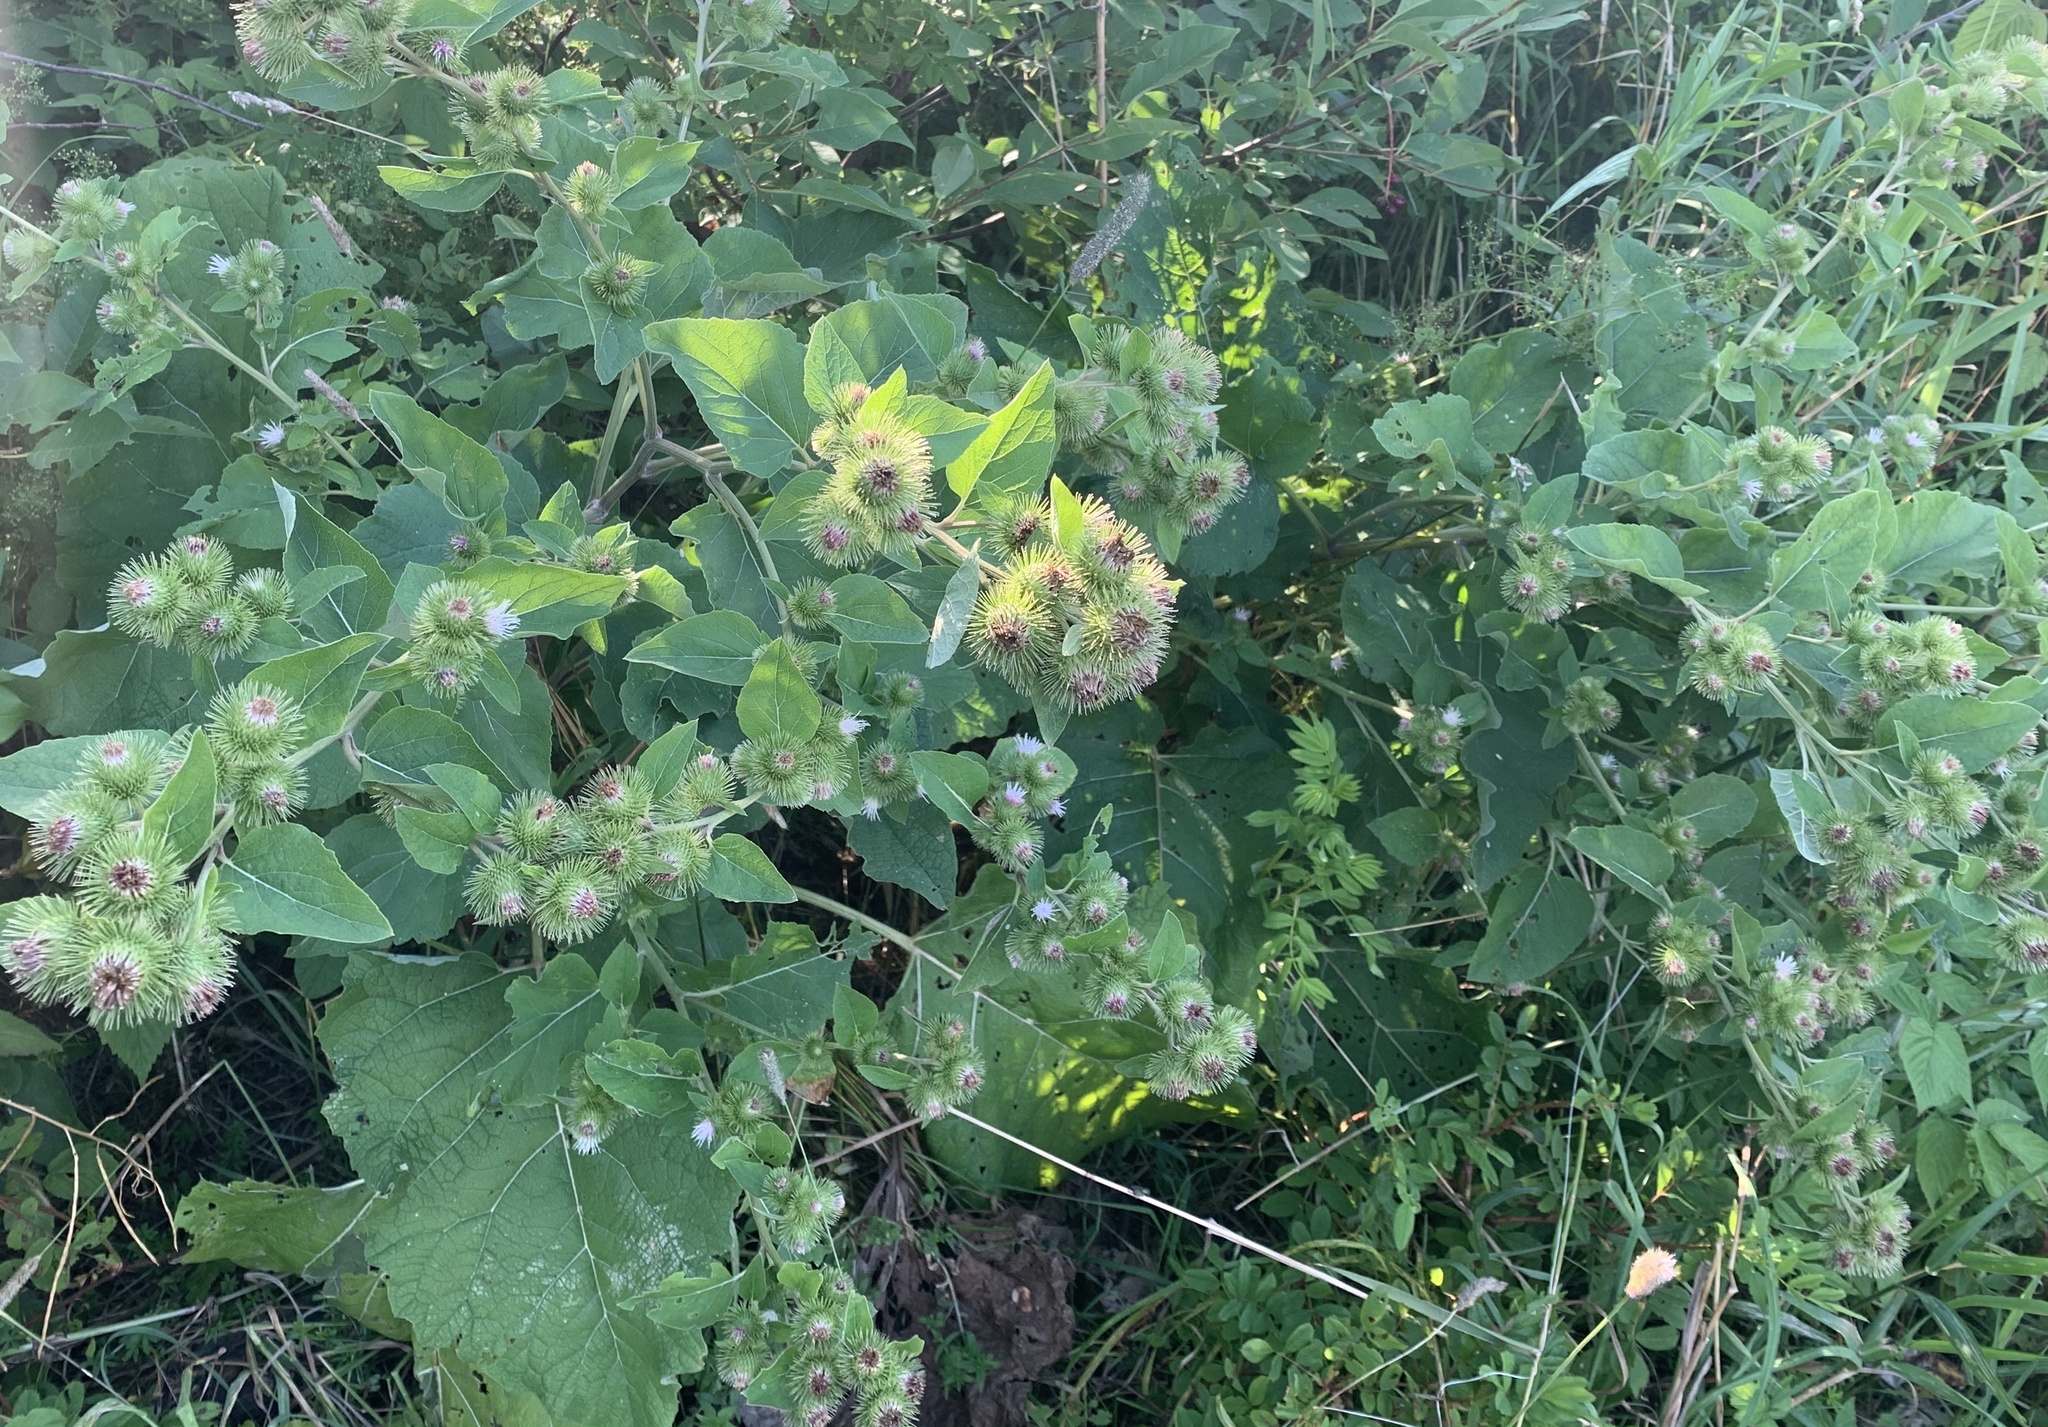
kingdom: Plantae
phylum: Tracheophyta
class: Magnoliopsida
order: Asterales
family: Asteraceae
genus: Arctium
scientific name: Arctium minus
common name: Lesser burdock
